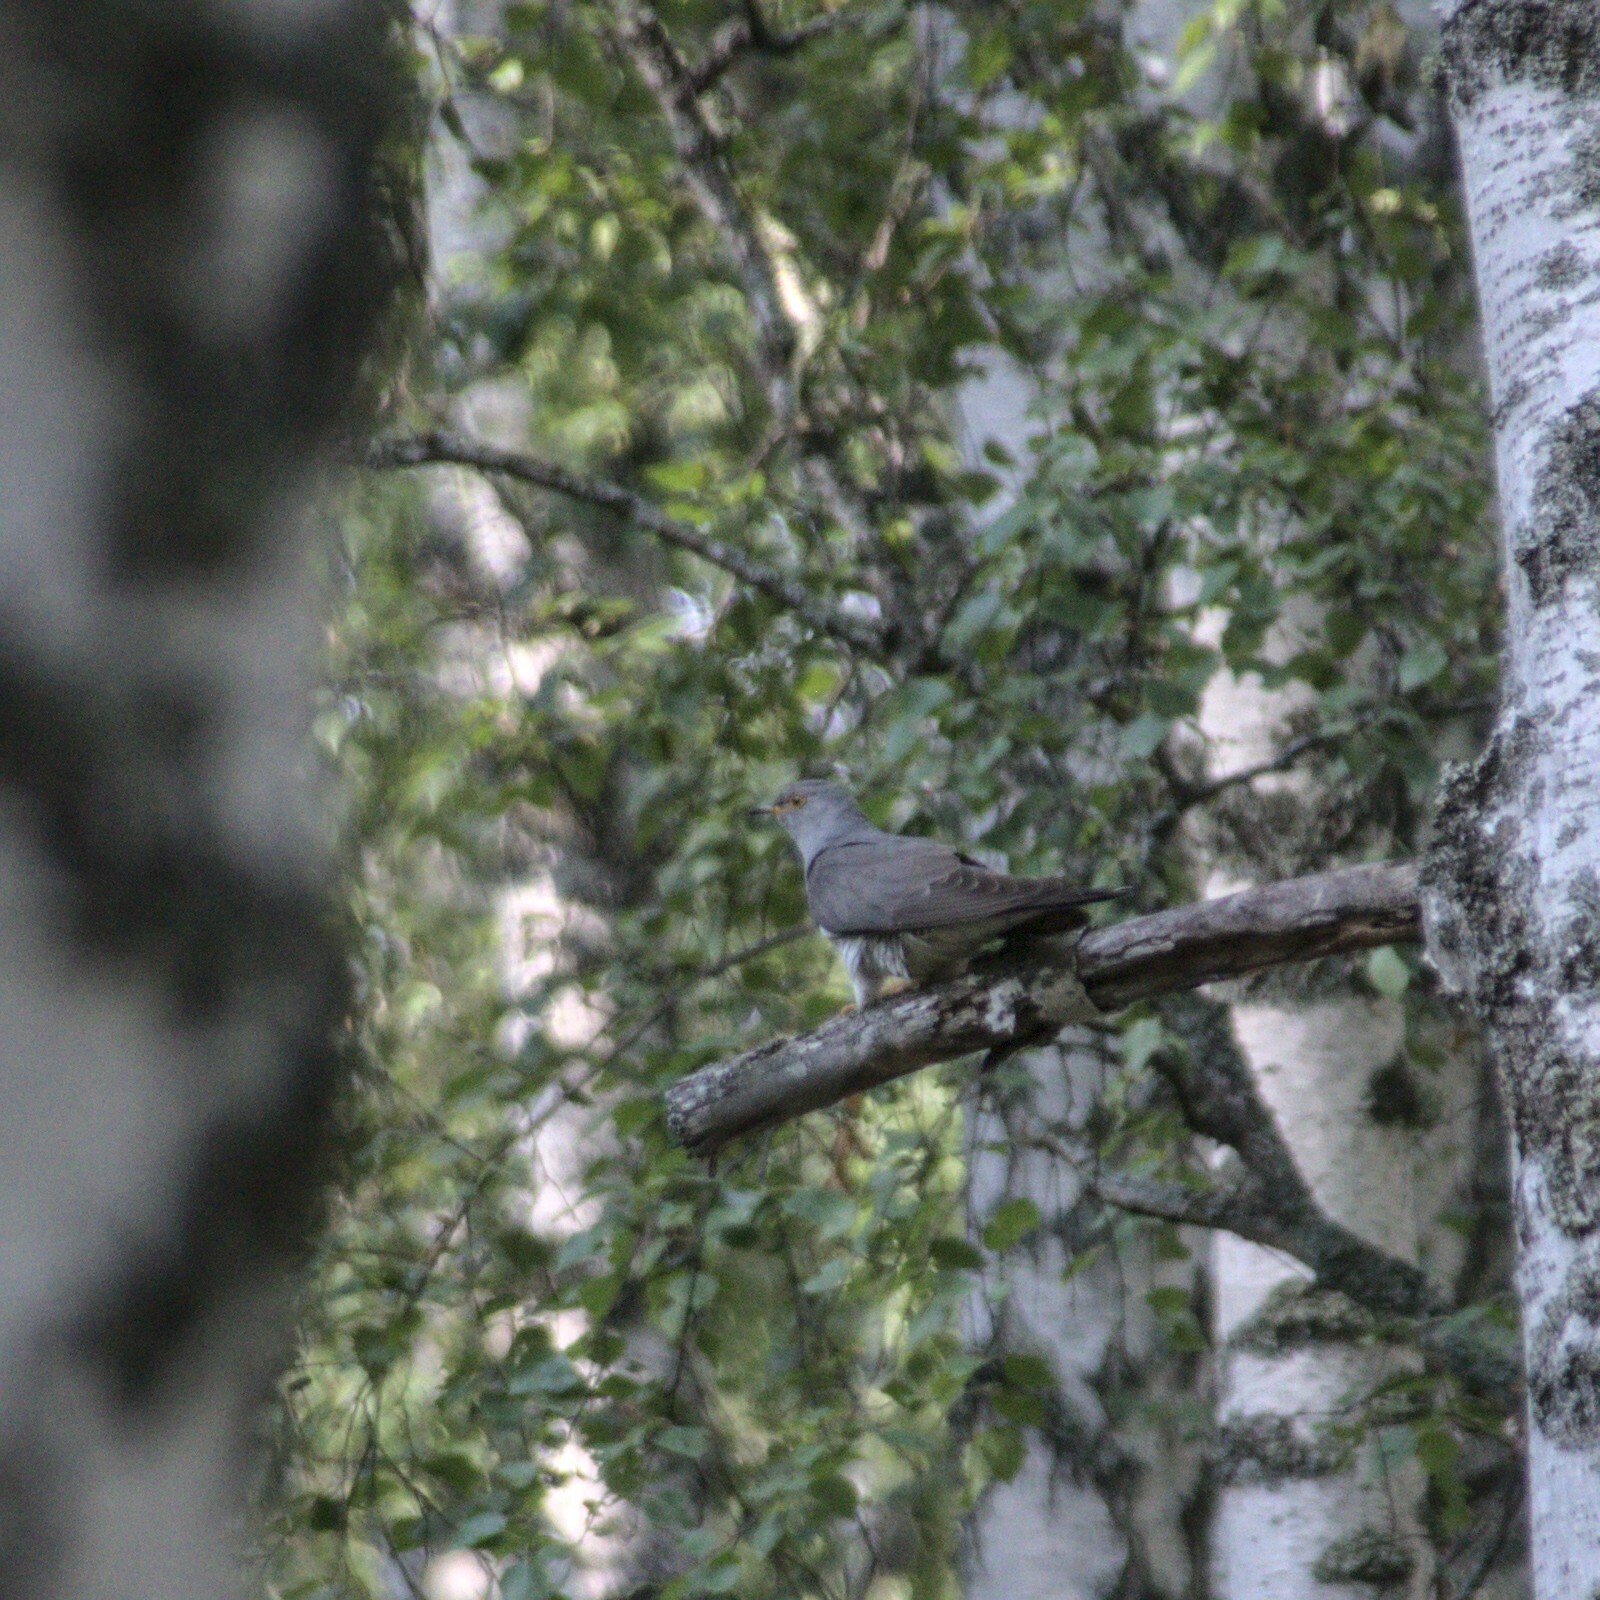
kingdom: Animalia
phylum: Chordata
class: Aves
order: Cuculiformes
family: Cuculidae
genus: Cuculus
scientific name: Cuculus canorus
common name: Common cuckoo
